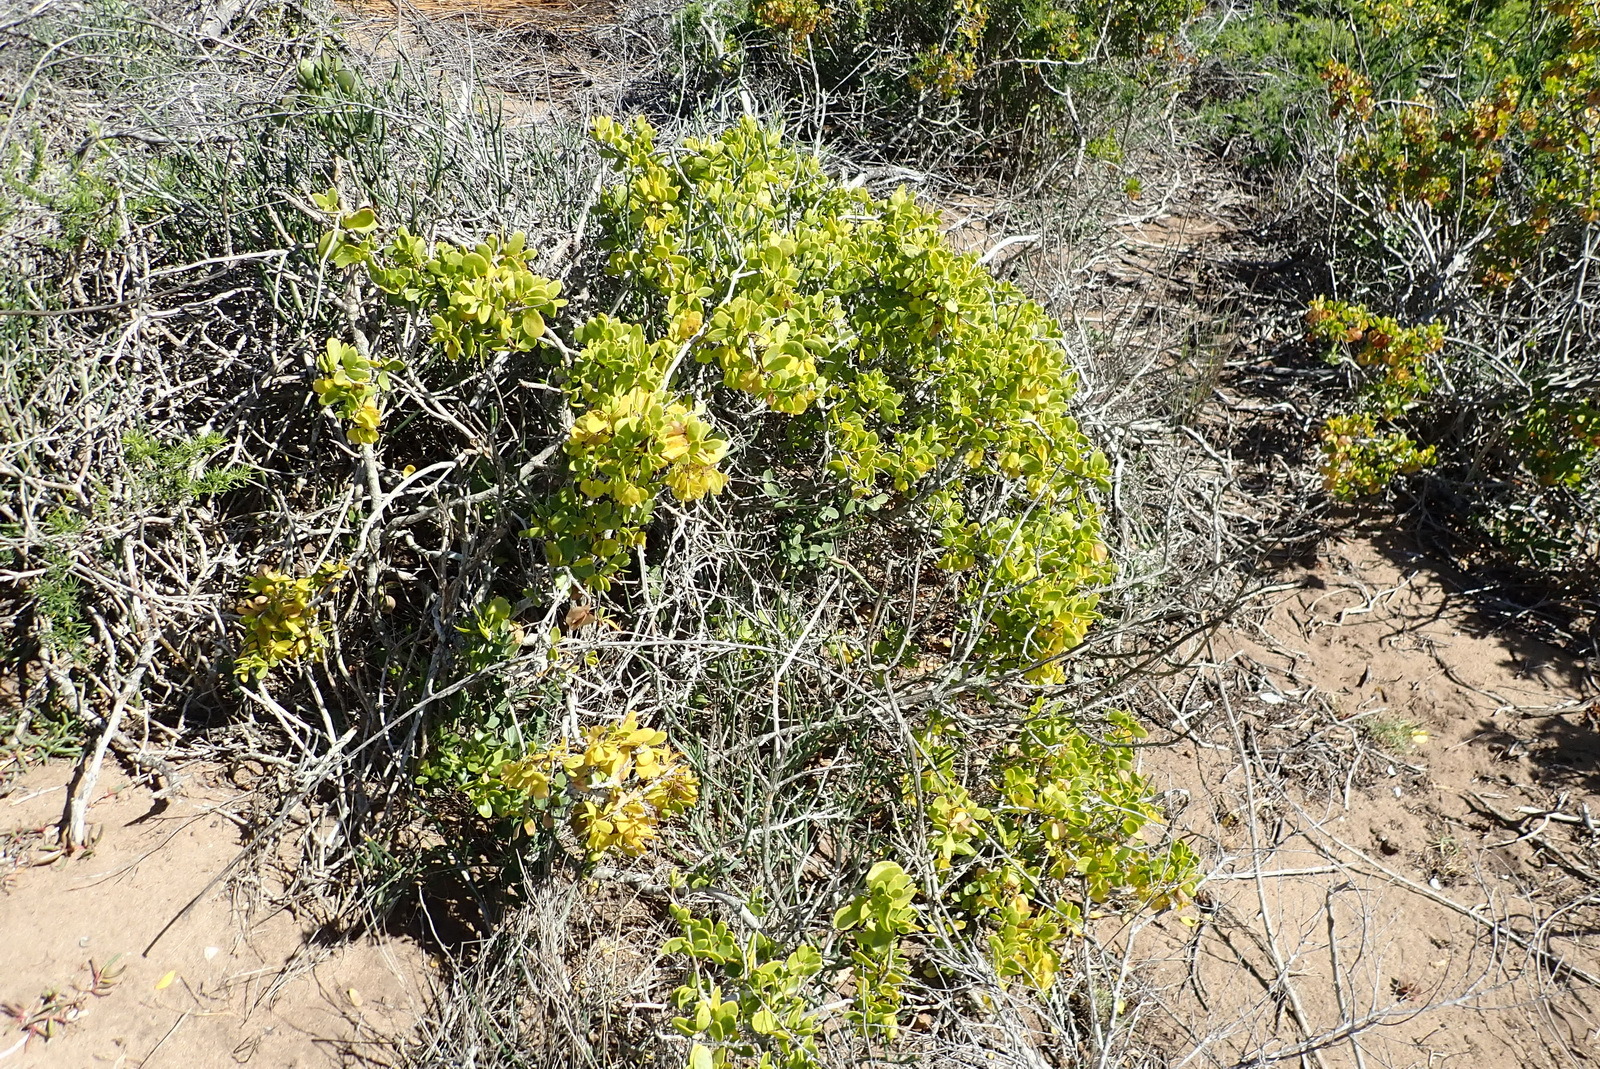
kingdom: Plantae
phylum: Tracheophyta
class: Magnoliopsida
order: Zygophyllales
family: Zygophyllaceae
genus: Roepera
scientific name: Roepera morgsana
